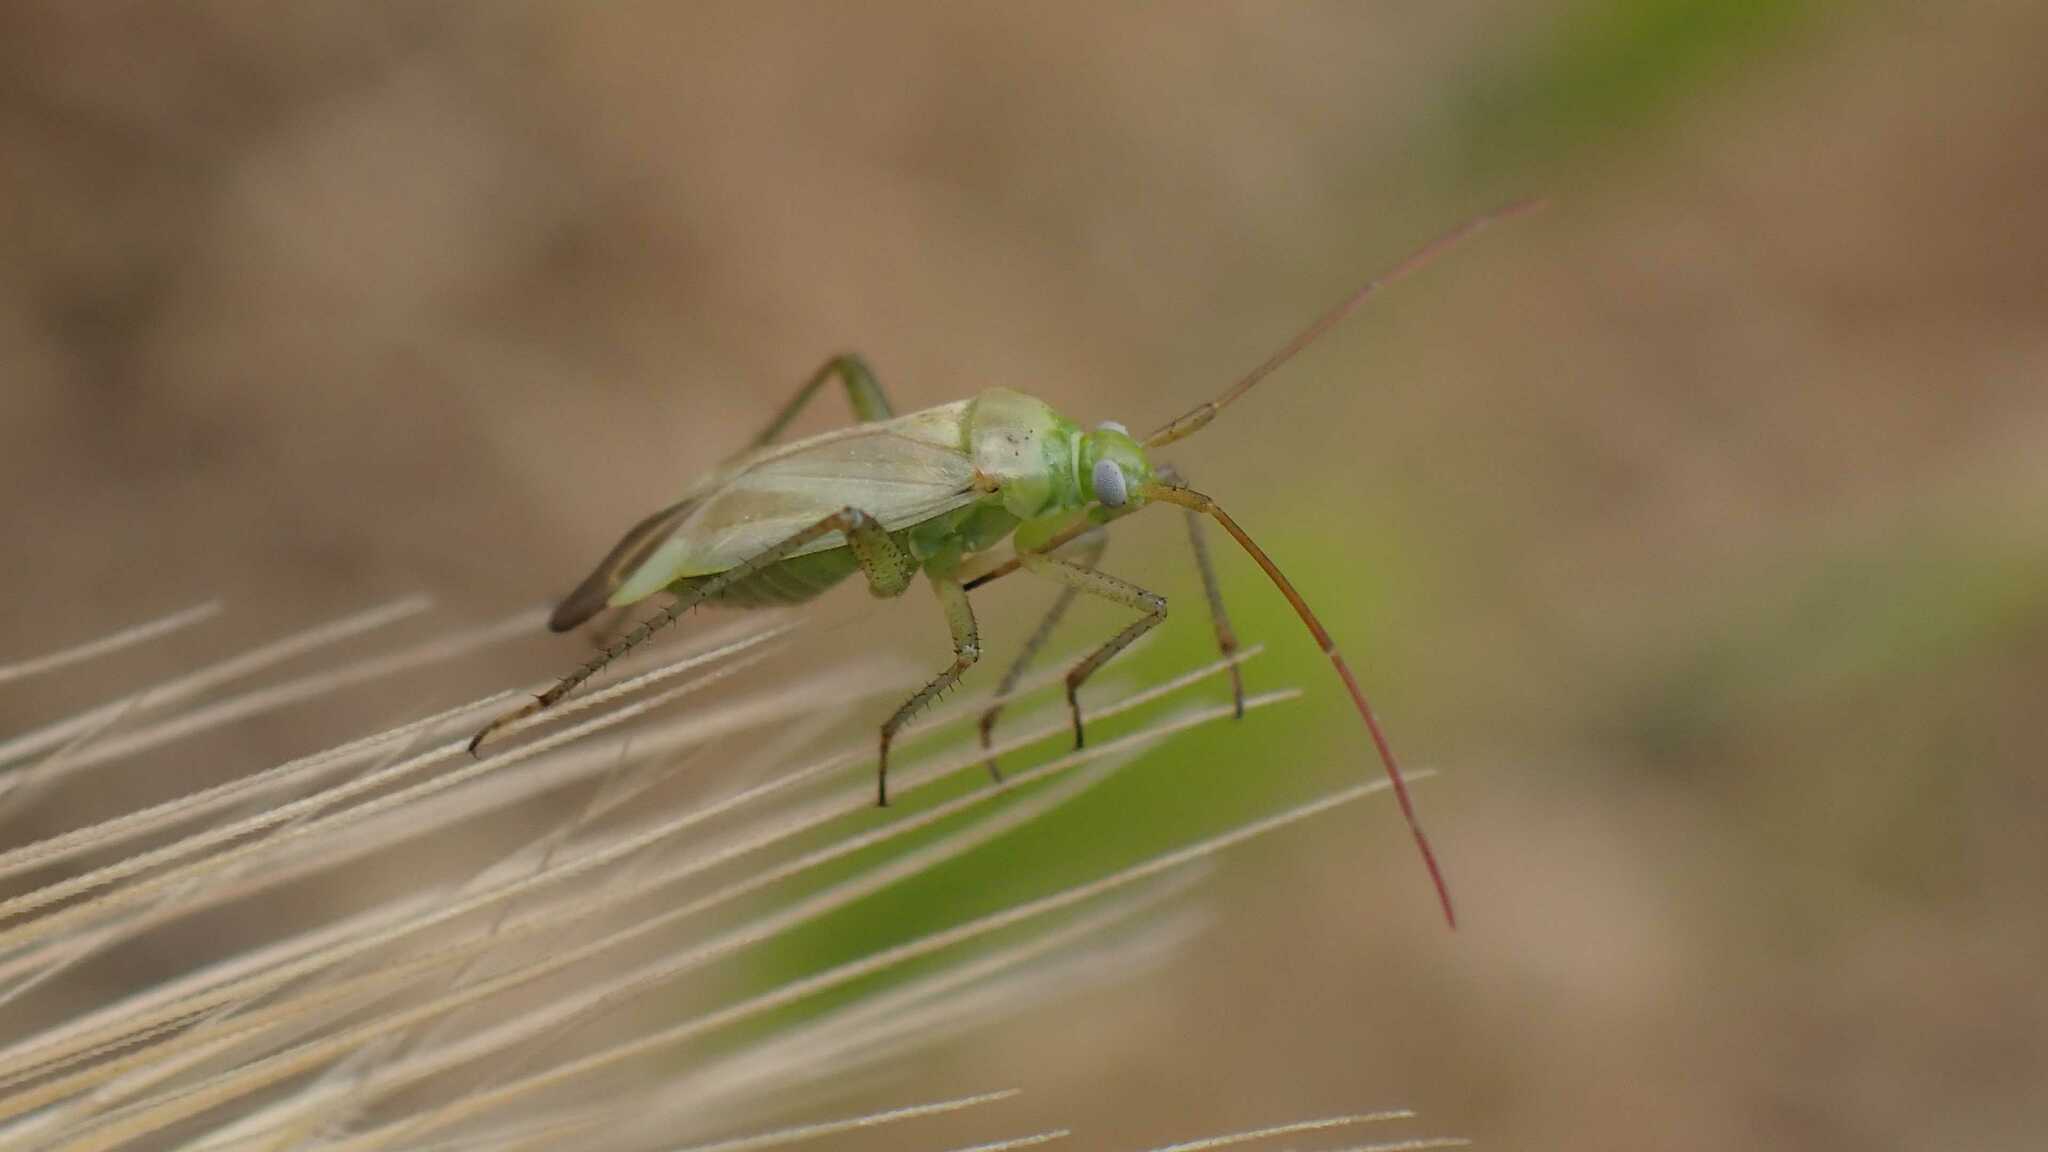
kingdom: Animalia
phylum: Arthropoda
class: Insecta
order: Hemiptera
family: Miridae
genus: Adelphocoris
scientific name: Adelphocoris lineolatus
